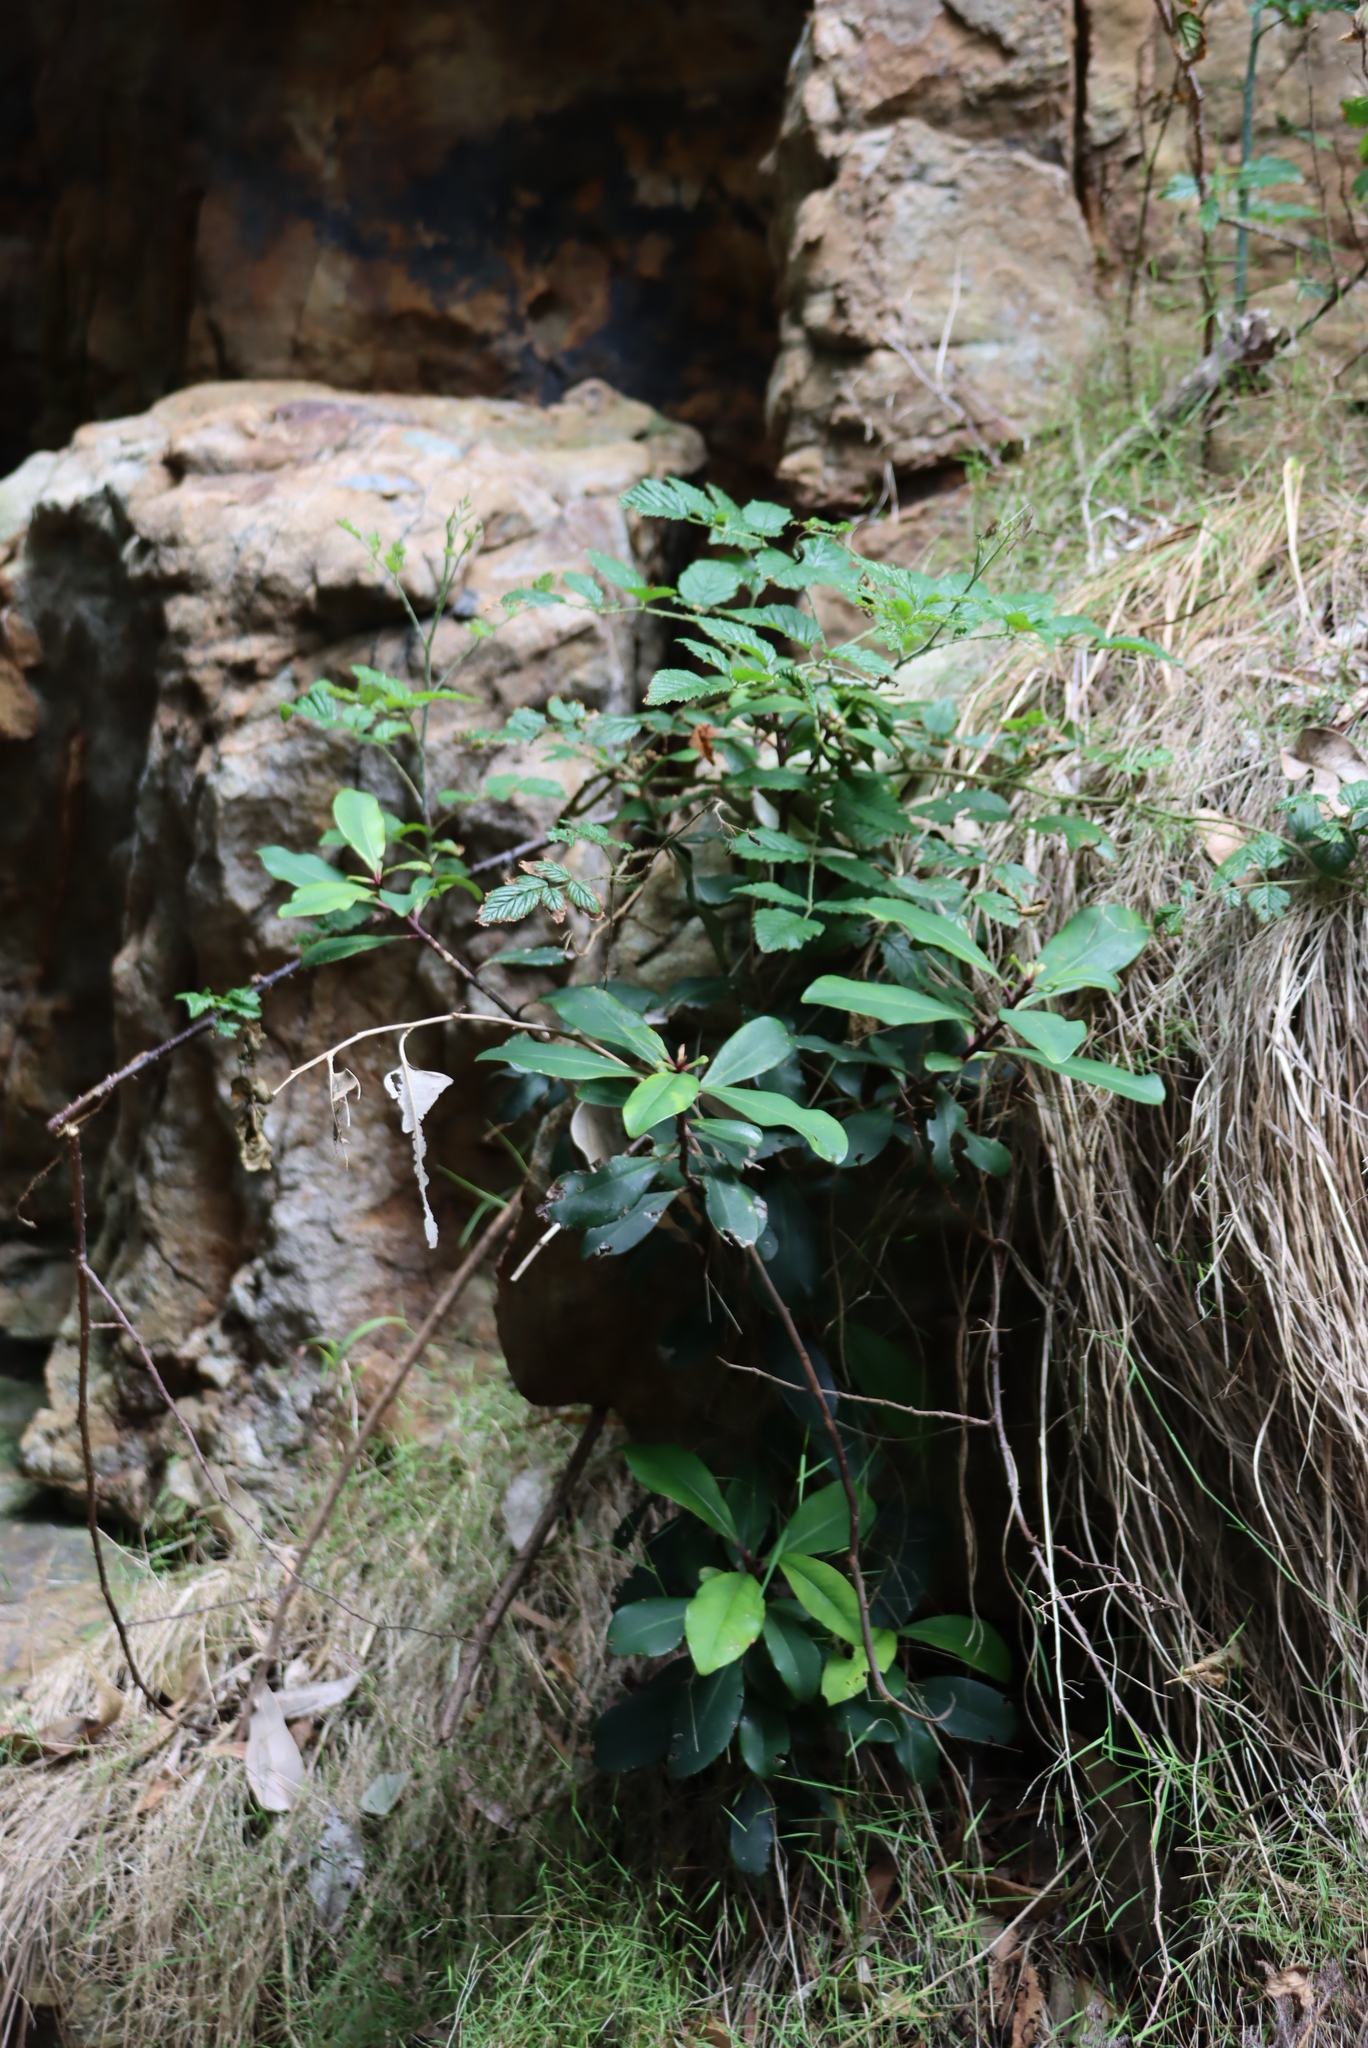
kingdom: Plantae
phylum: Tracheophyta
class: Magnoliopsida
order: Ericales
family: Primulaceae
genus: Myrsine
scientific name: Myrsine melanophloeos
